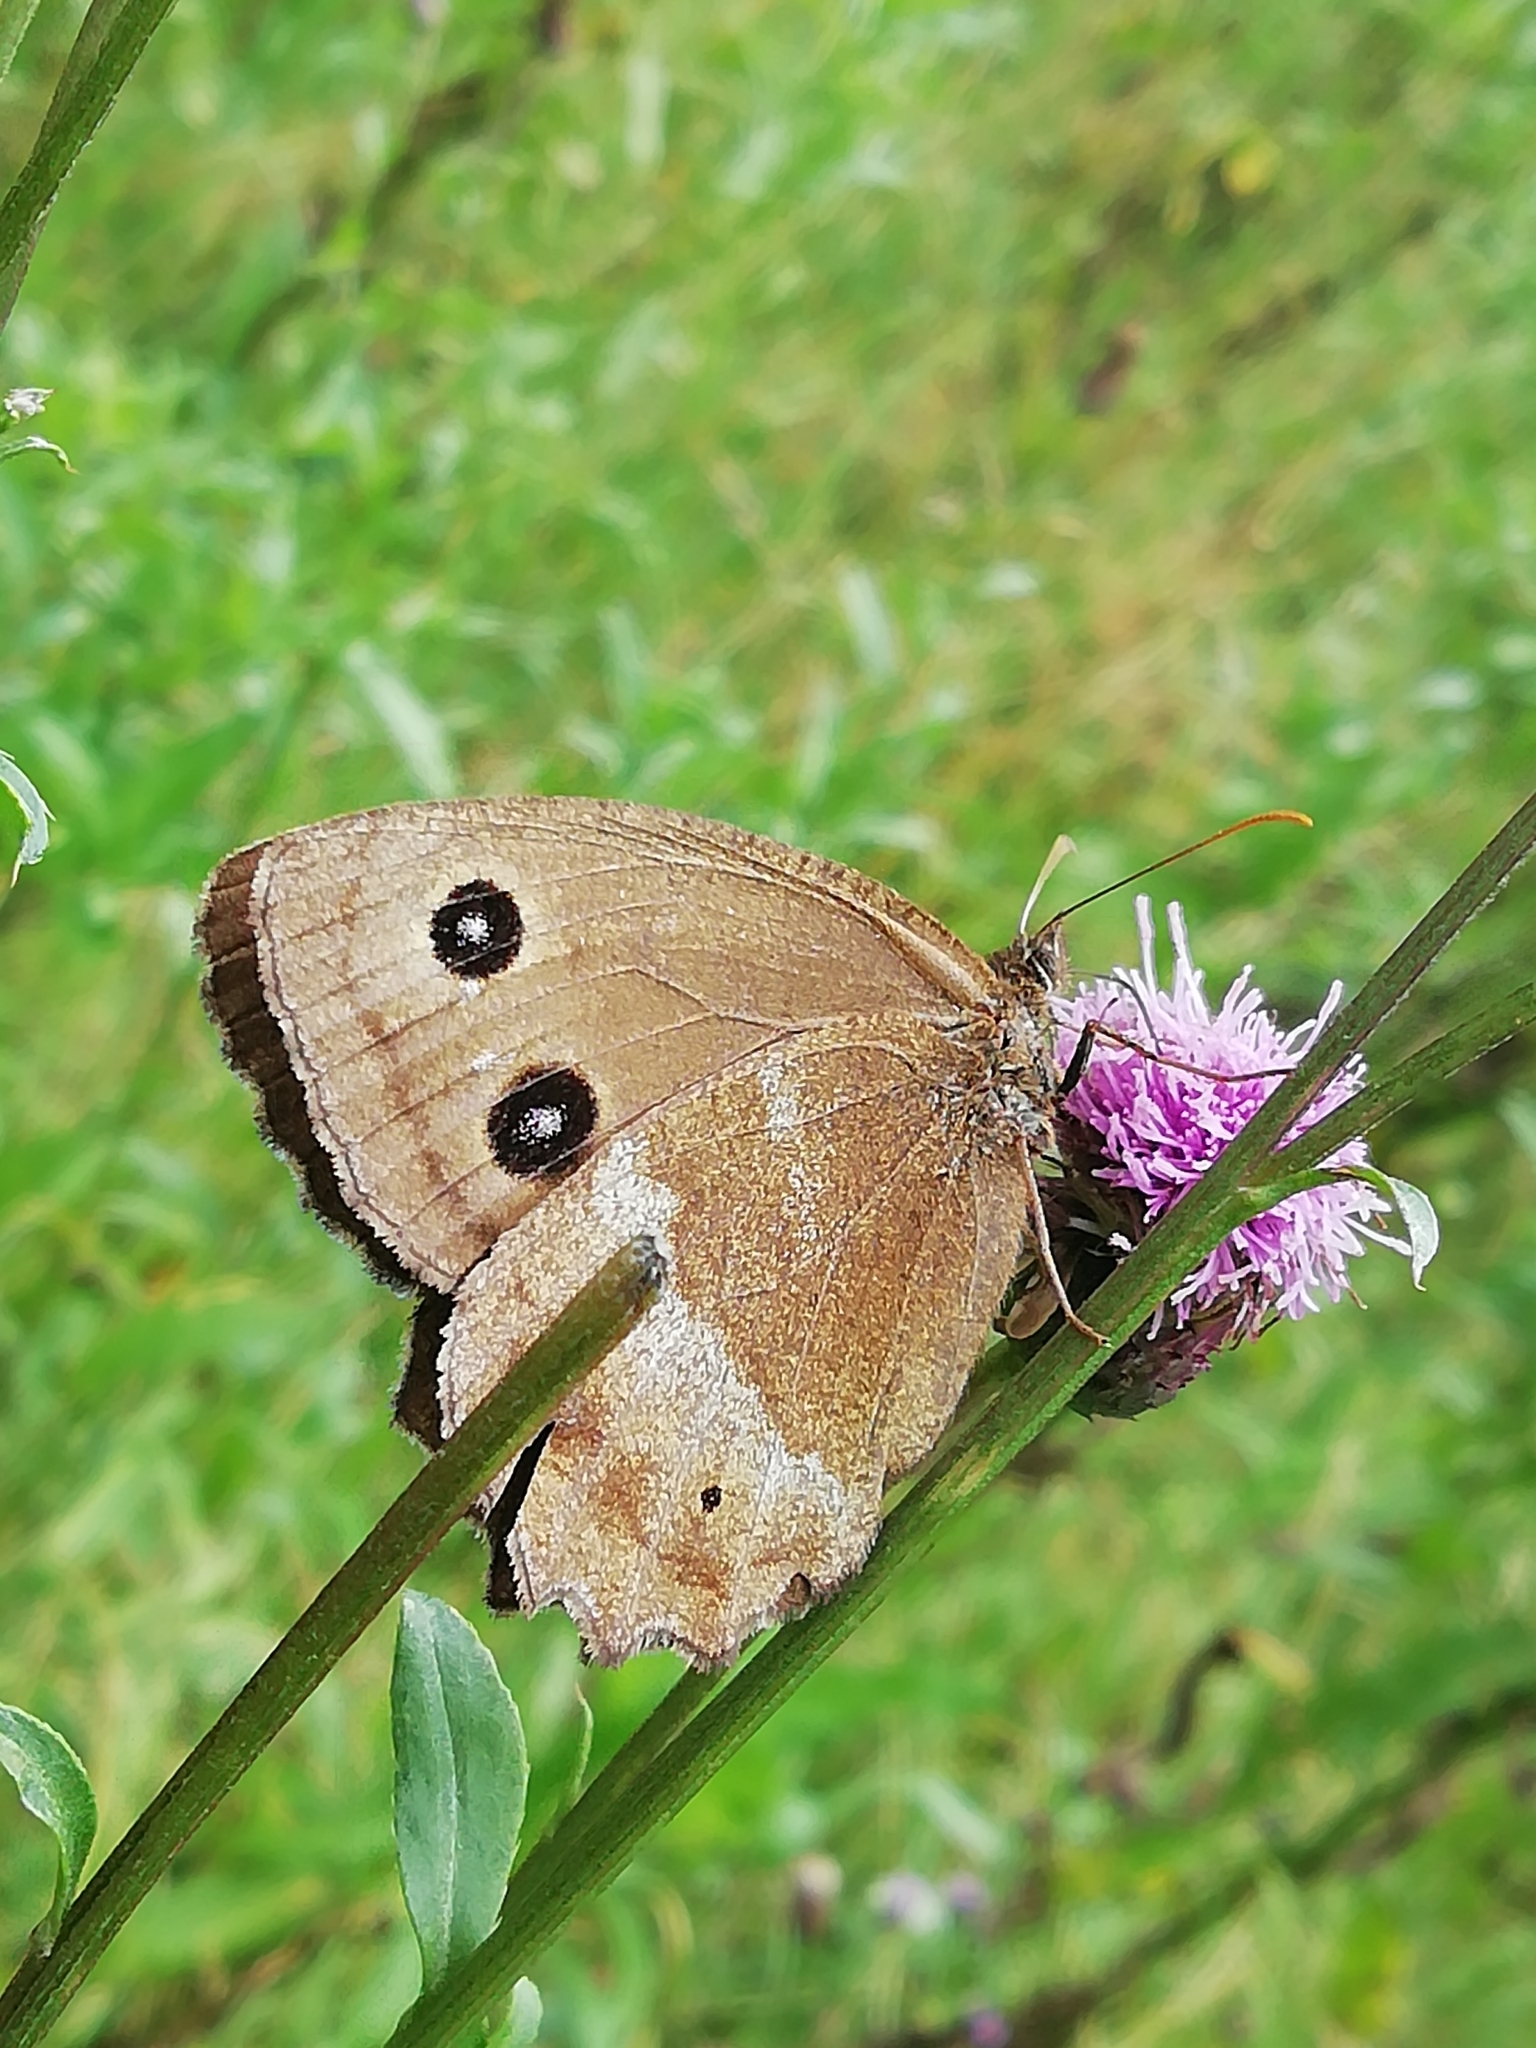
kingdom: Animalia
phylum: Arthropoda
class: Insecta
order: Lepidoptera
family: Nymphalidae
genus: Minois
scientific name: Minois dryas
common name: Dryad
